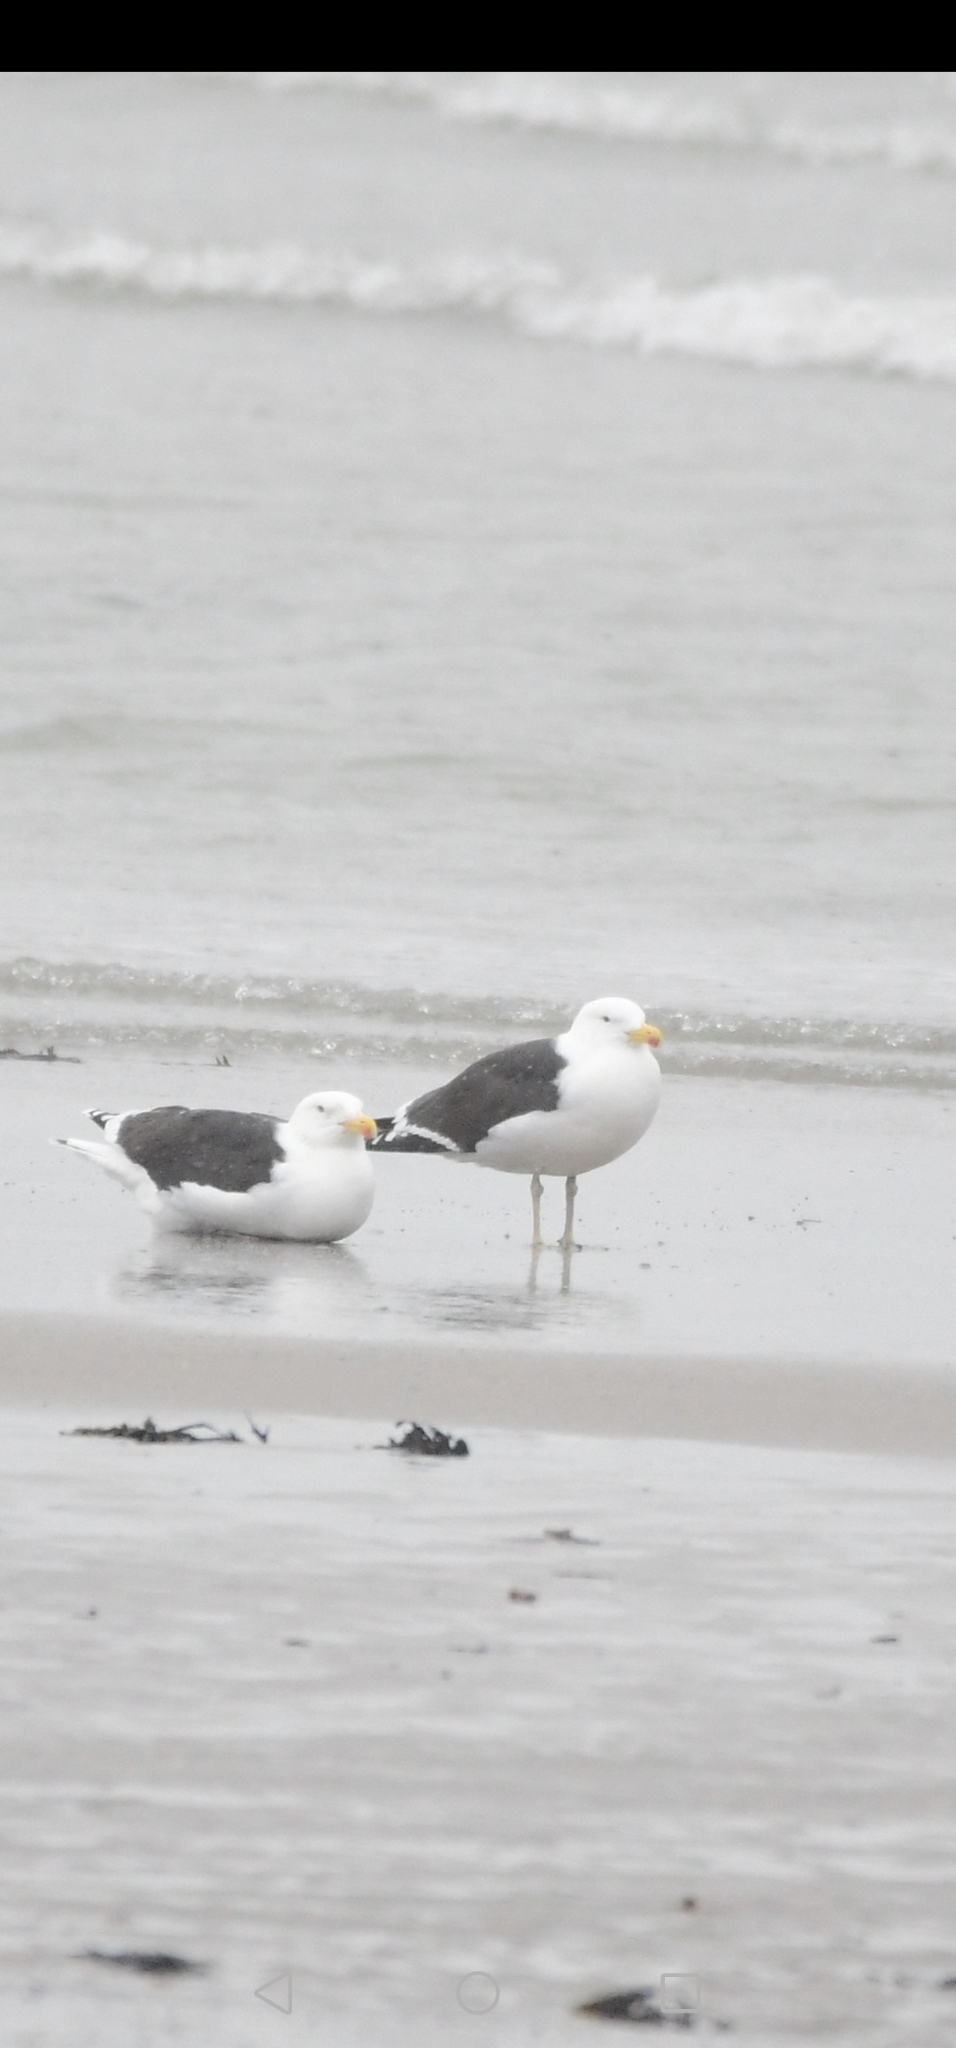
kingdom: Animalia
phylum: Chordata
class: Aves
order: Charadriiformes
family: Laridae
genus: Larus
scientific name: Larus marinus
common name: Great black-backed gull
